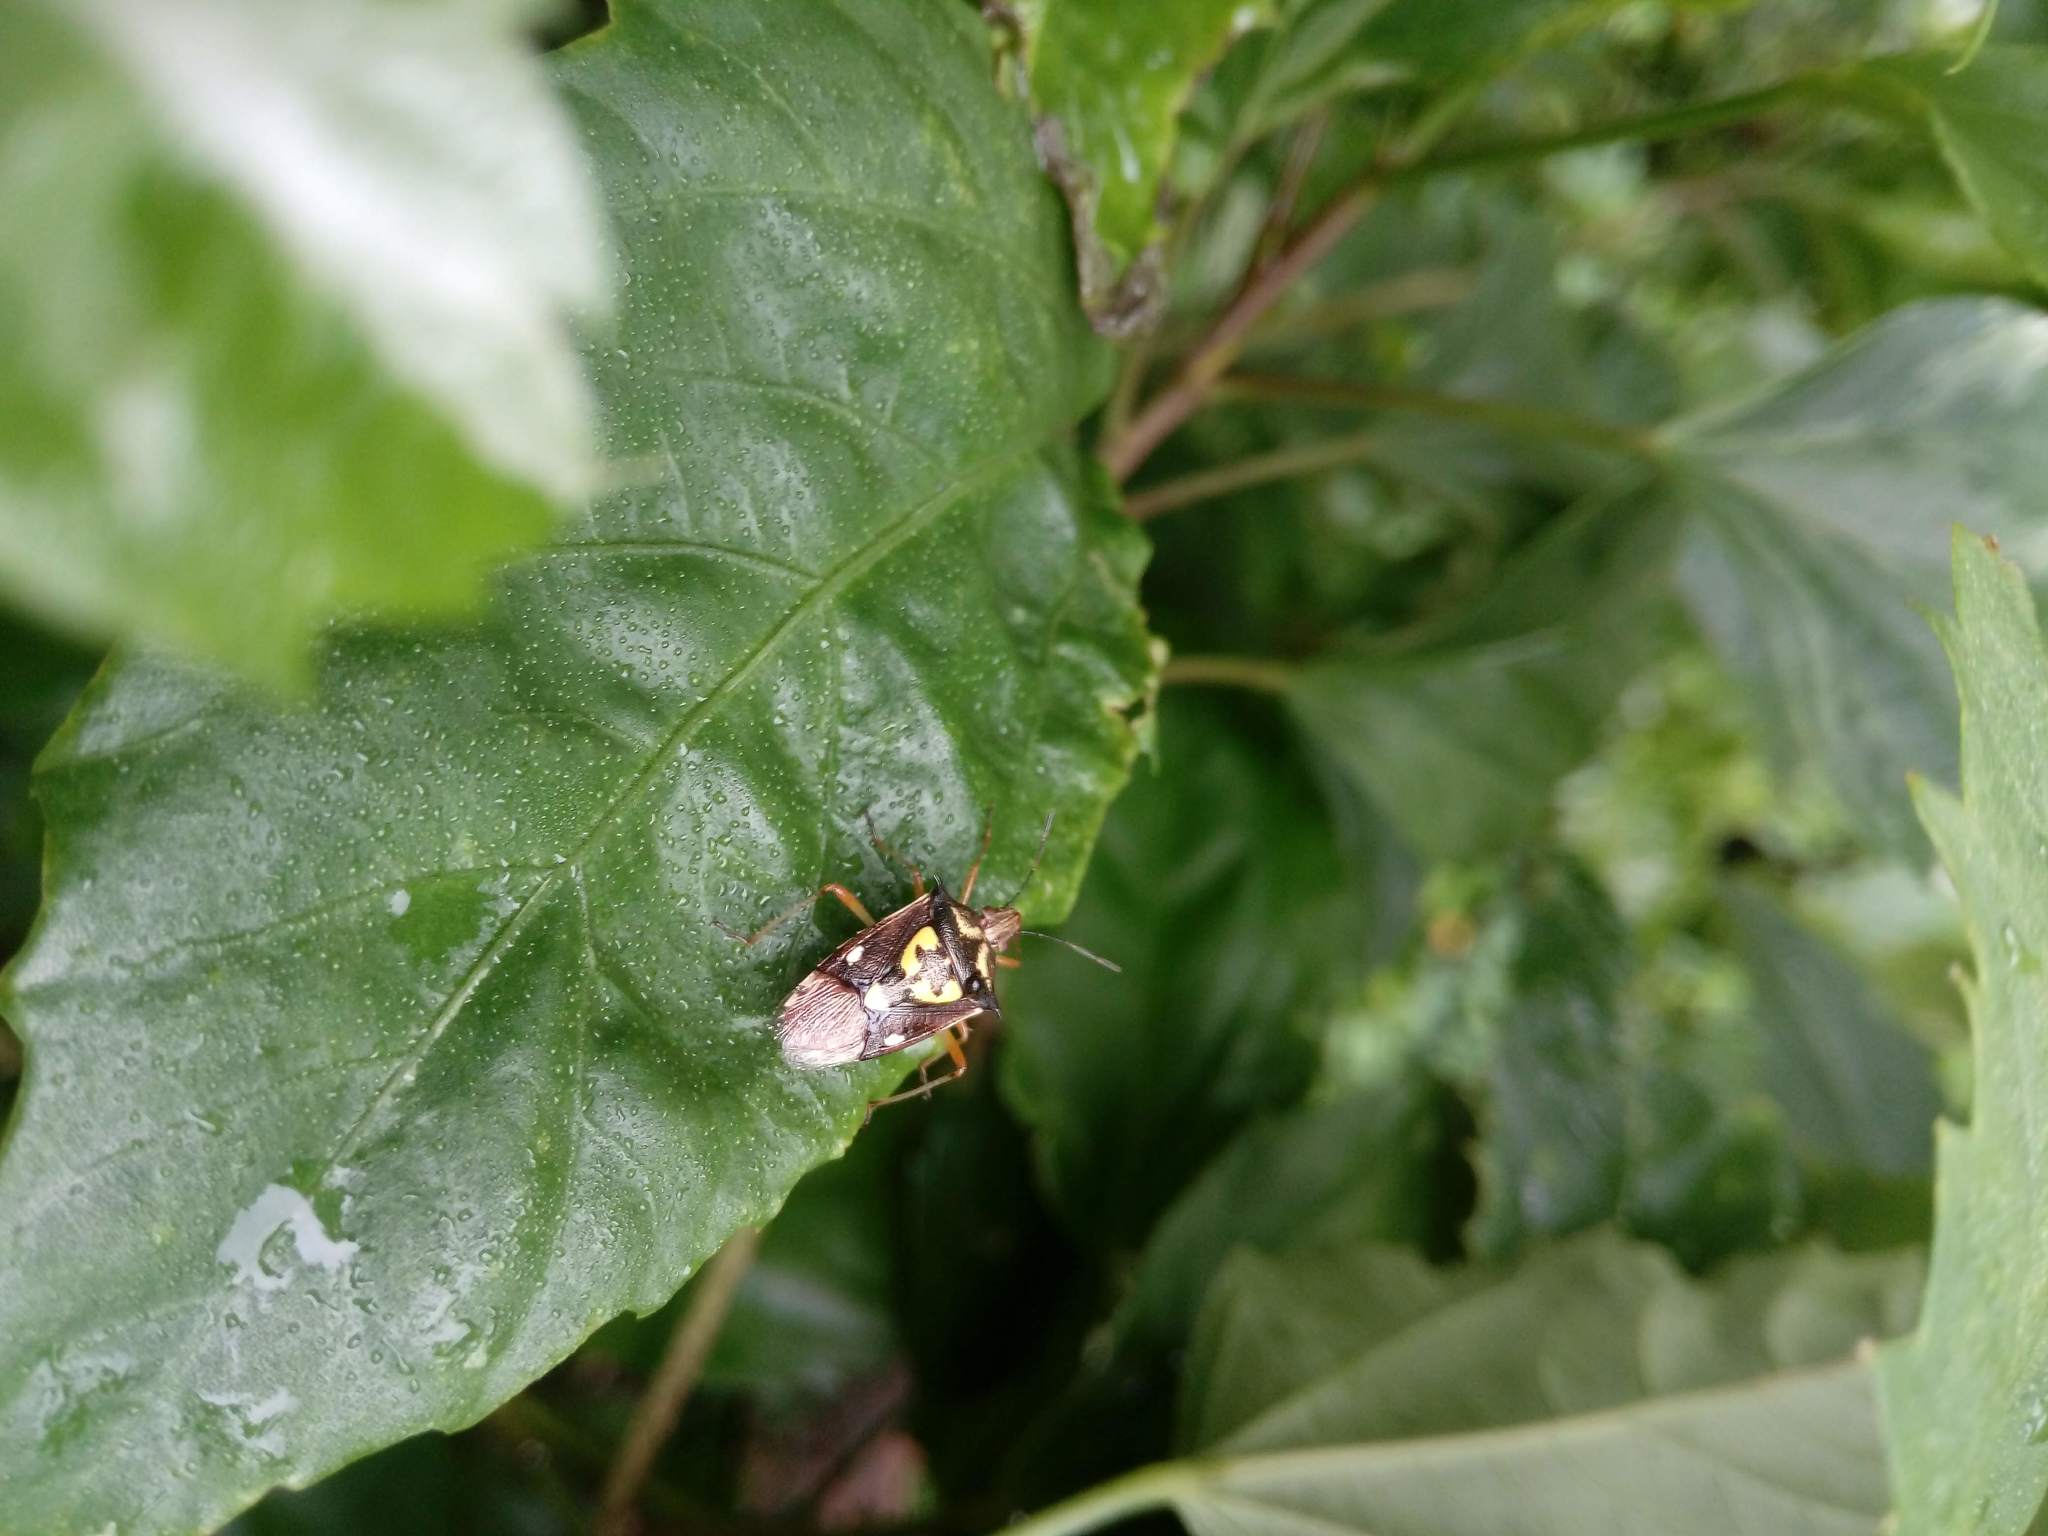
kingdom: Animalia
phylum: Arthropoda
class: Insecta
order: Hemiptera
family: Pentatomidae
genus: Oebalus
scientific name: Oebalus poecilus
